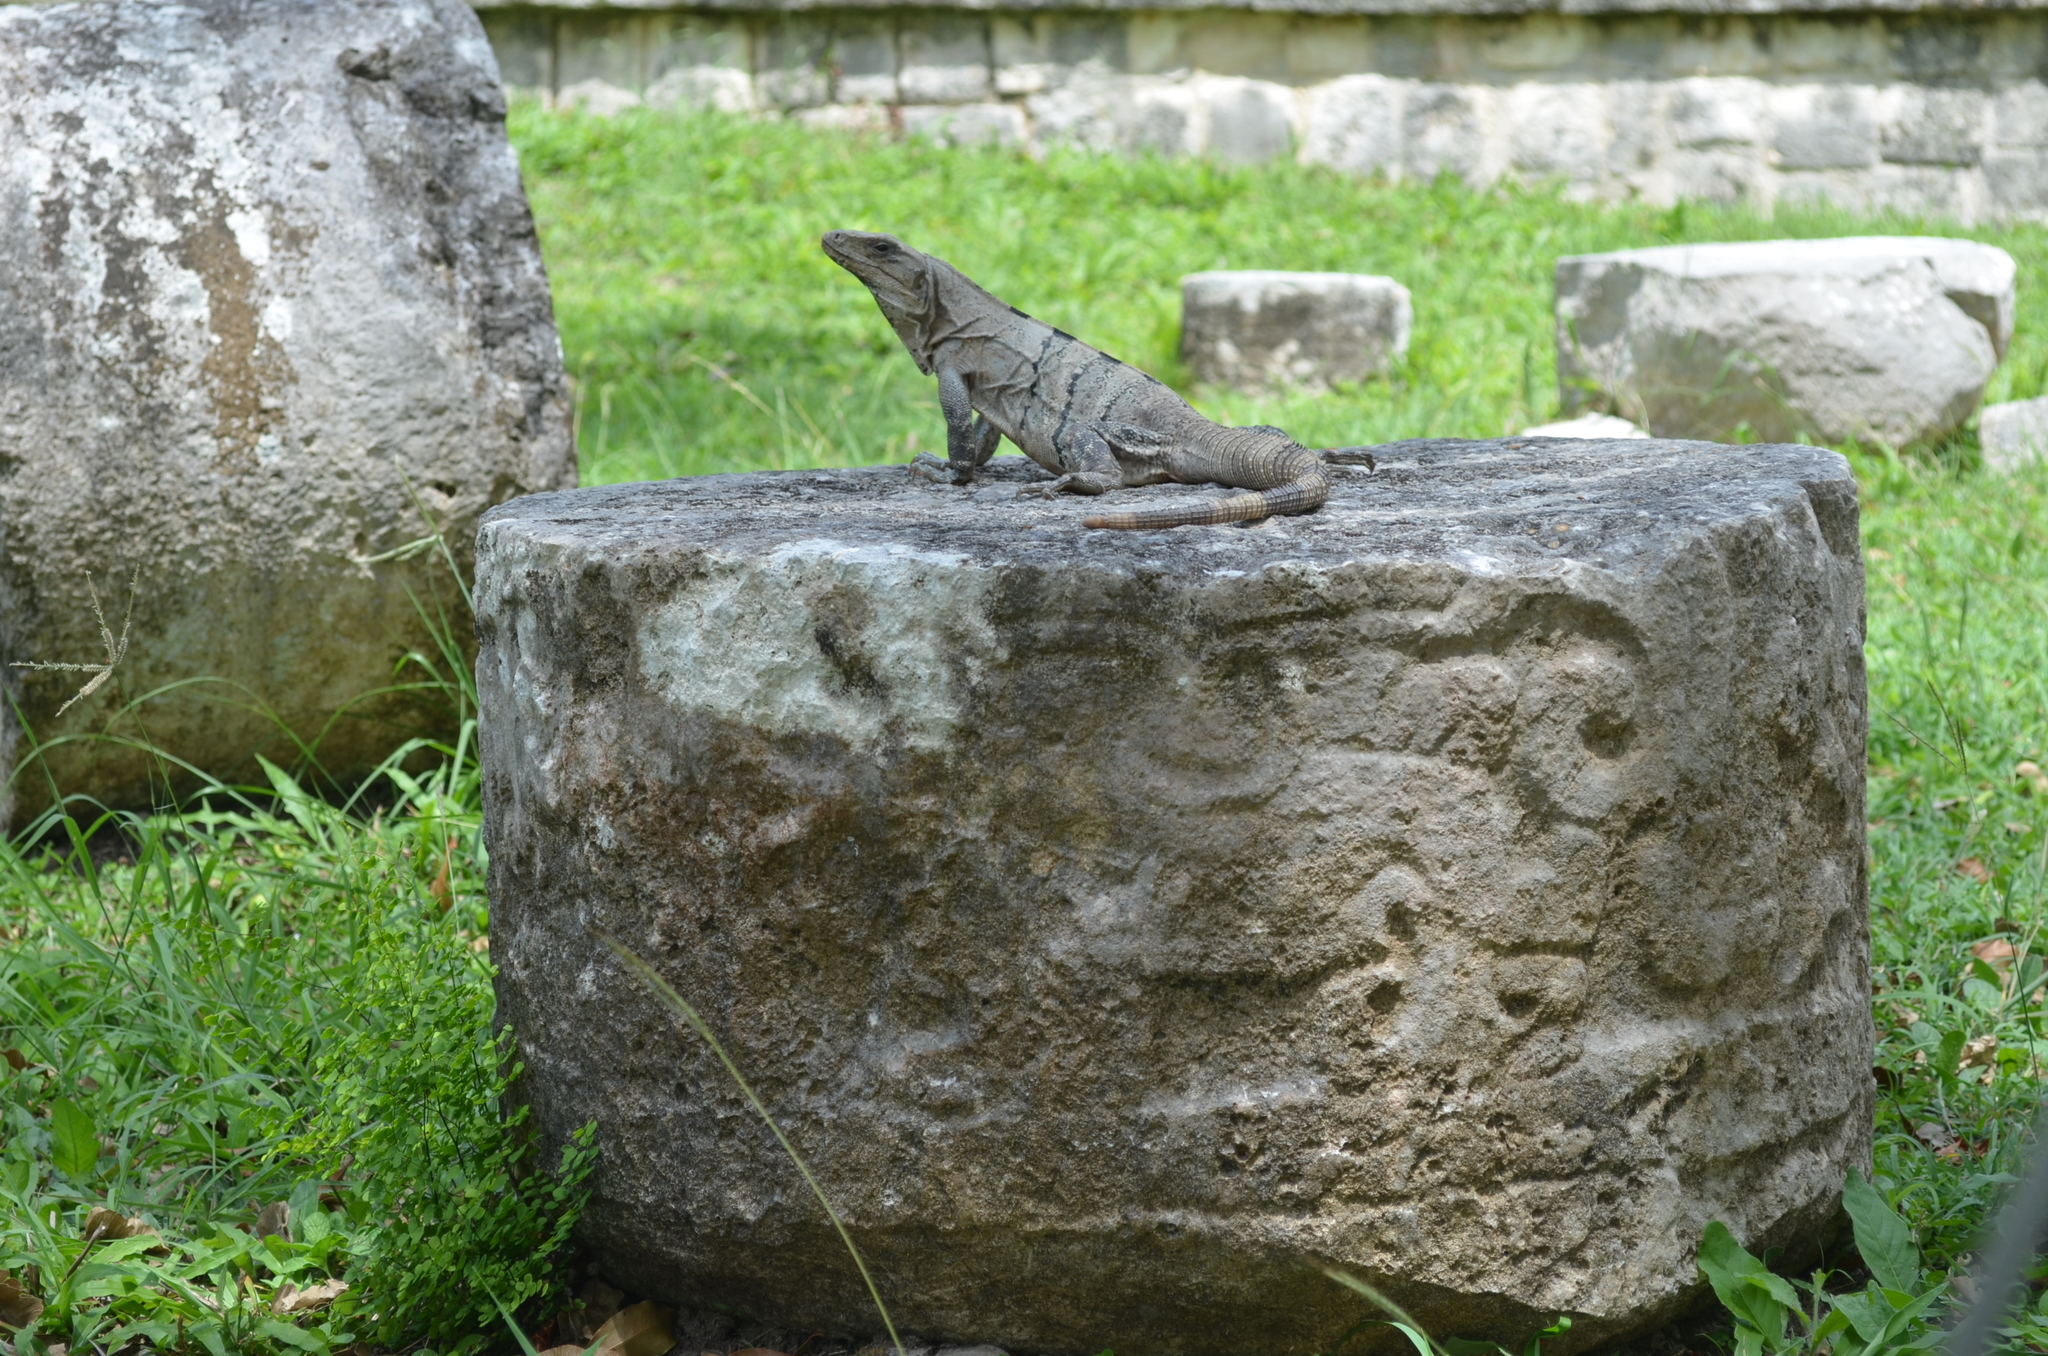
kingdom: Animalia
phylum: Chordata
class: Squamata
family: Iguanidae
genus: Ctenosaura
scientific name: Ctenosaura similis
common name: Black spiny-tailed iguana
